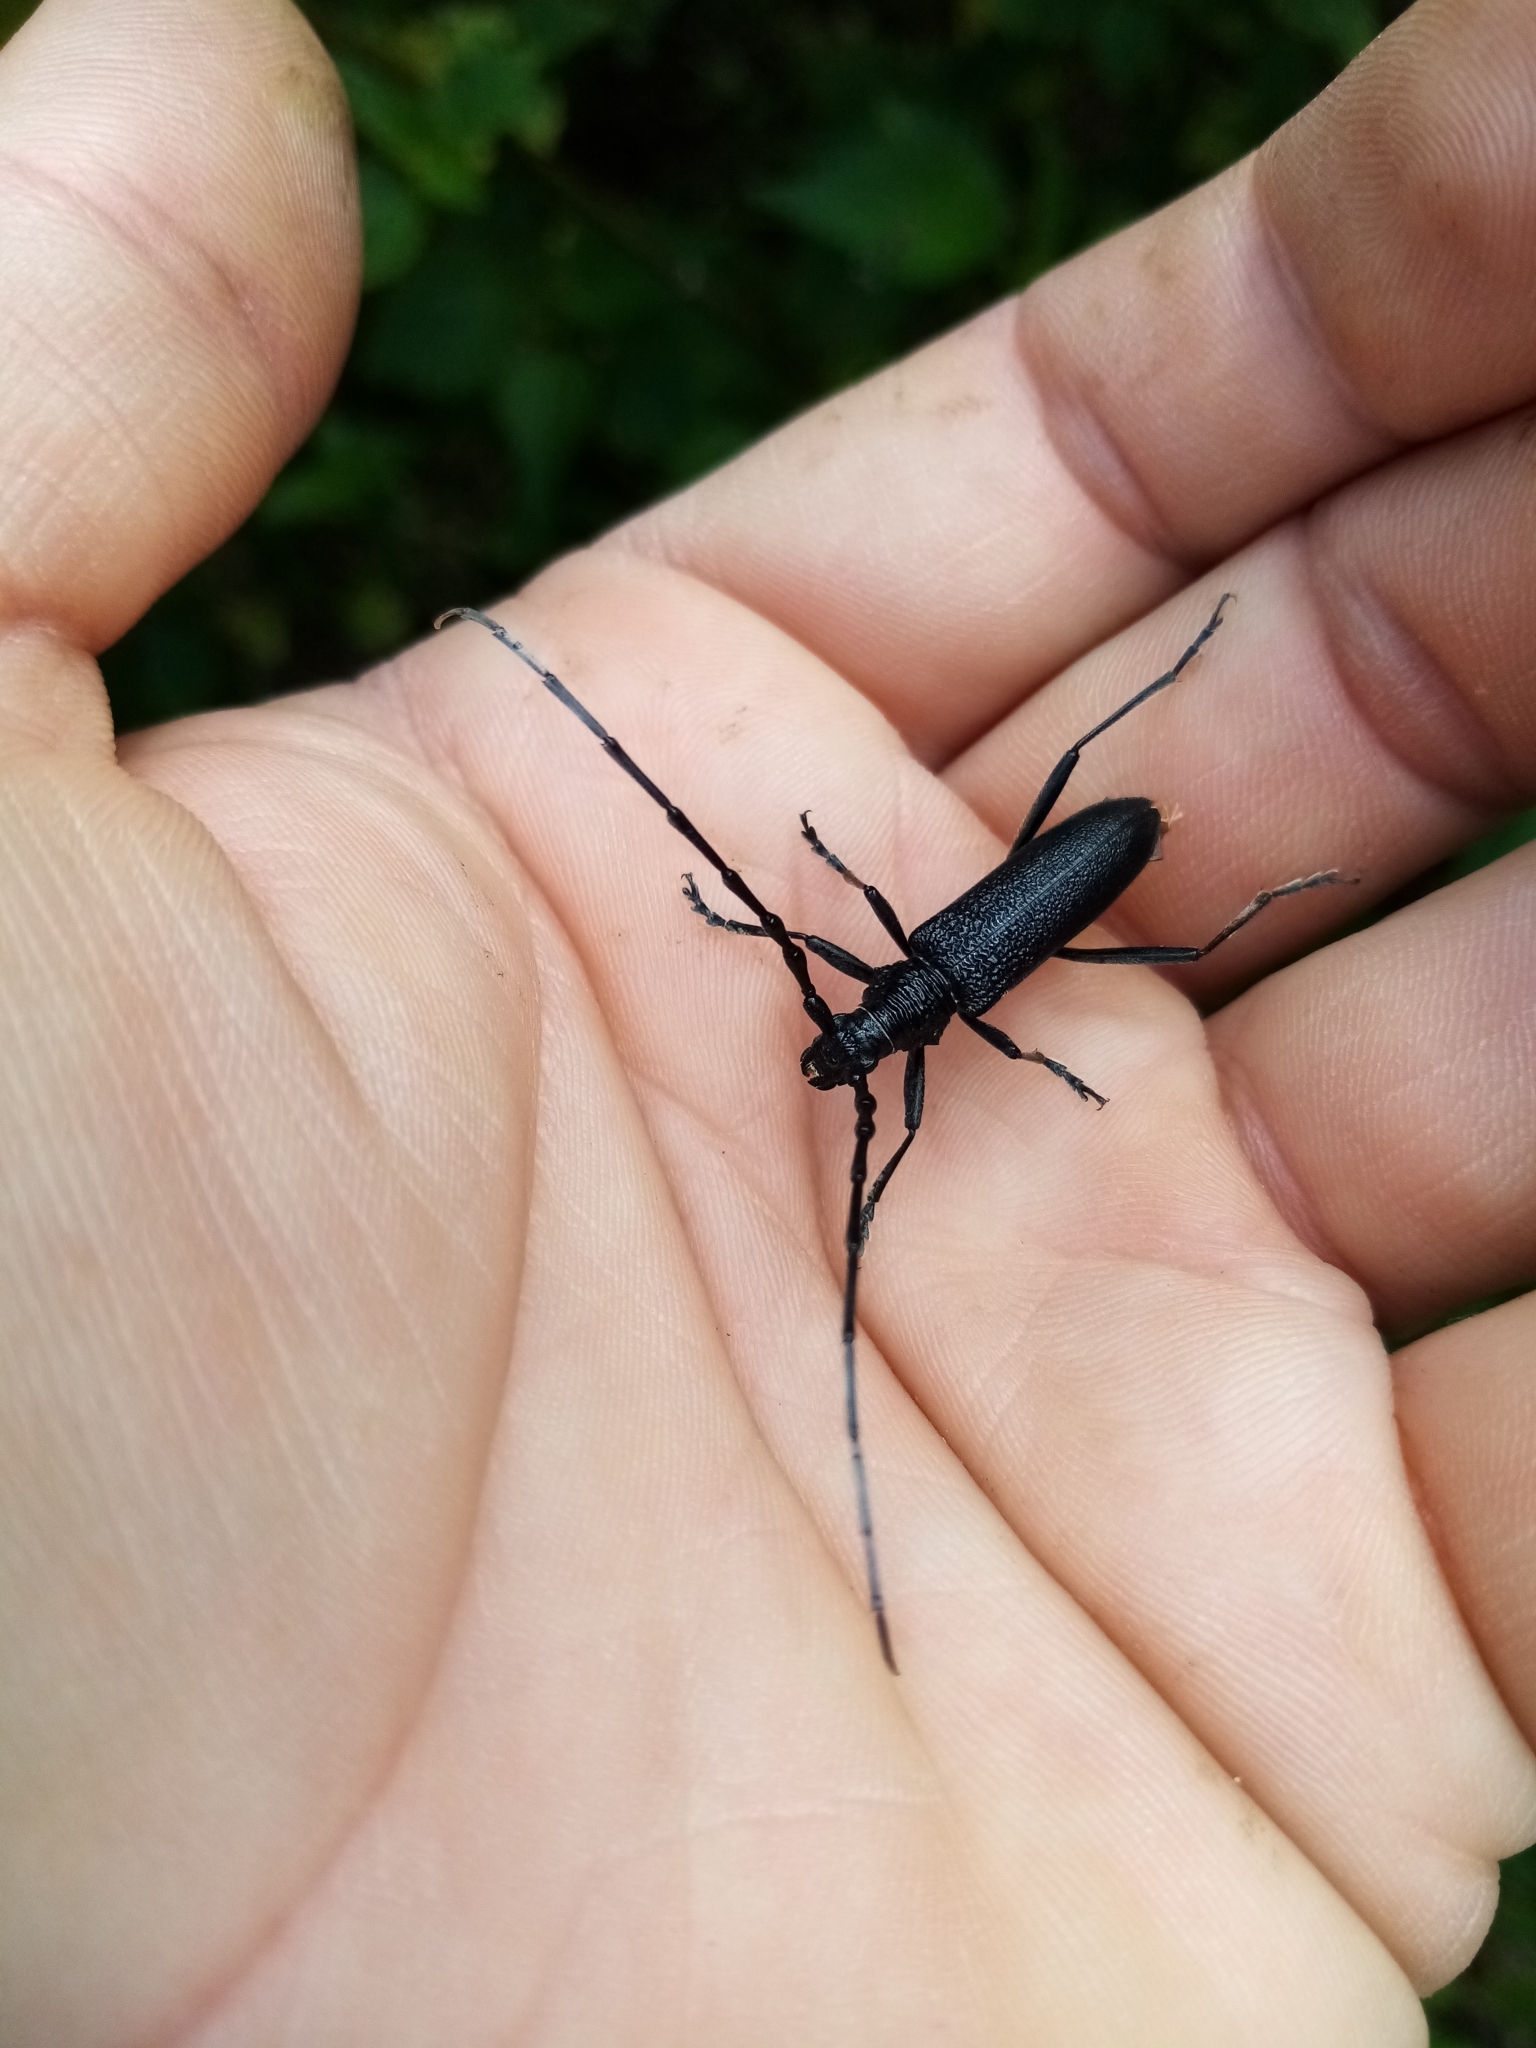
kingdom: Animalia
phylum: Arthropoda
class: Insecta
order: Coleoptera
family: Cerambycidae
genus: Cerambyx
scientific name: Cerambyx scopolii
